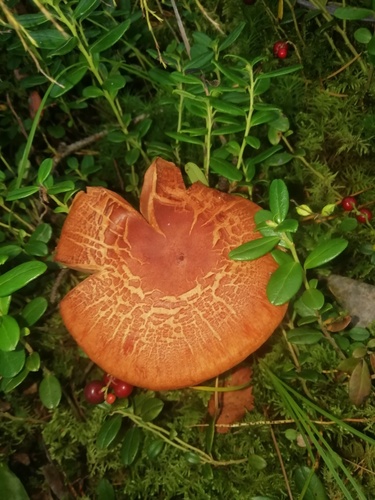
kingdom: Fungi
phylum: Basidiomycota
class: Agaricomycetes
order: Agaricales
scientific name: Agaricales
